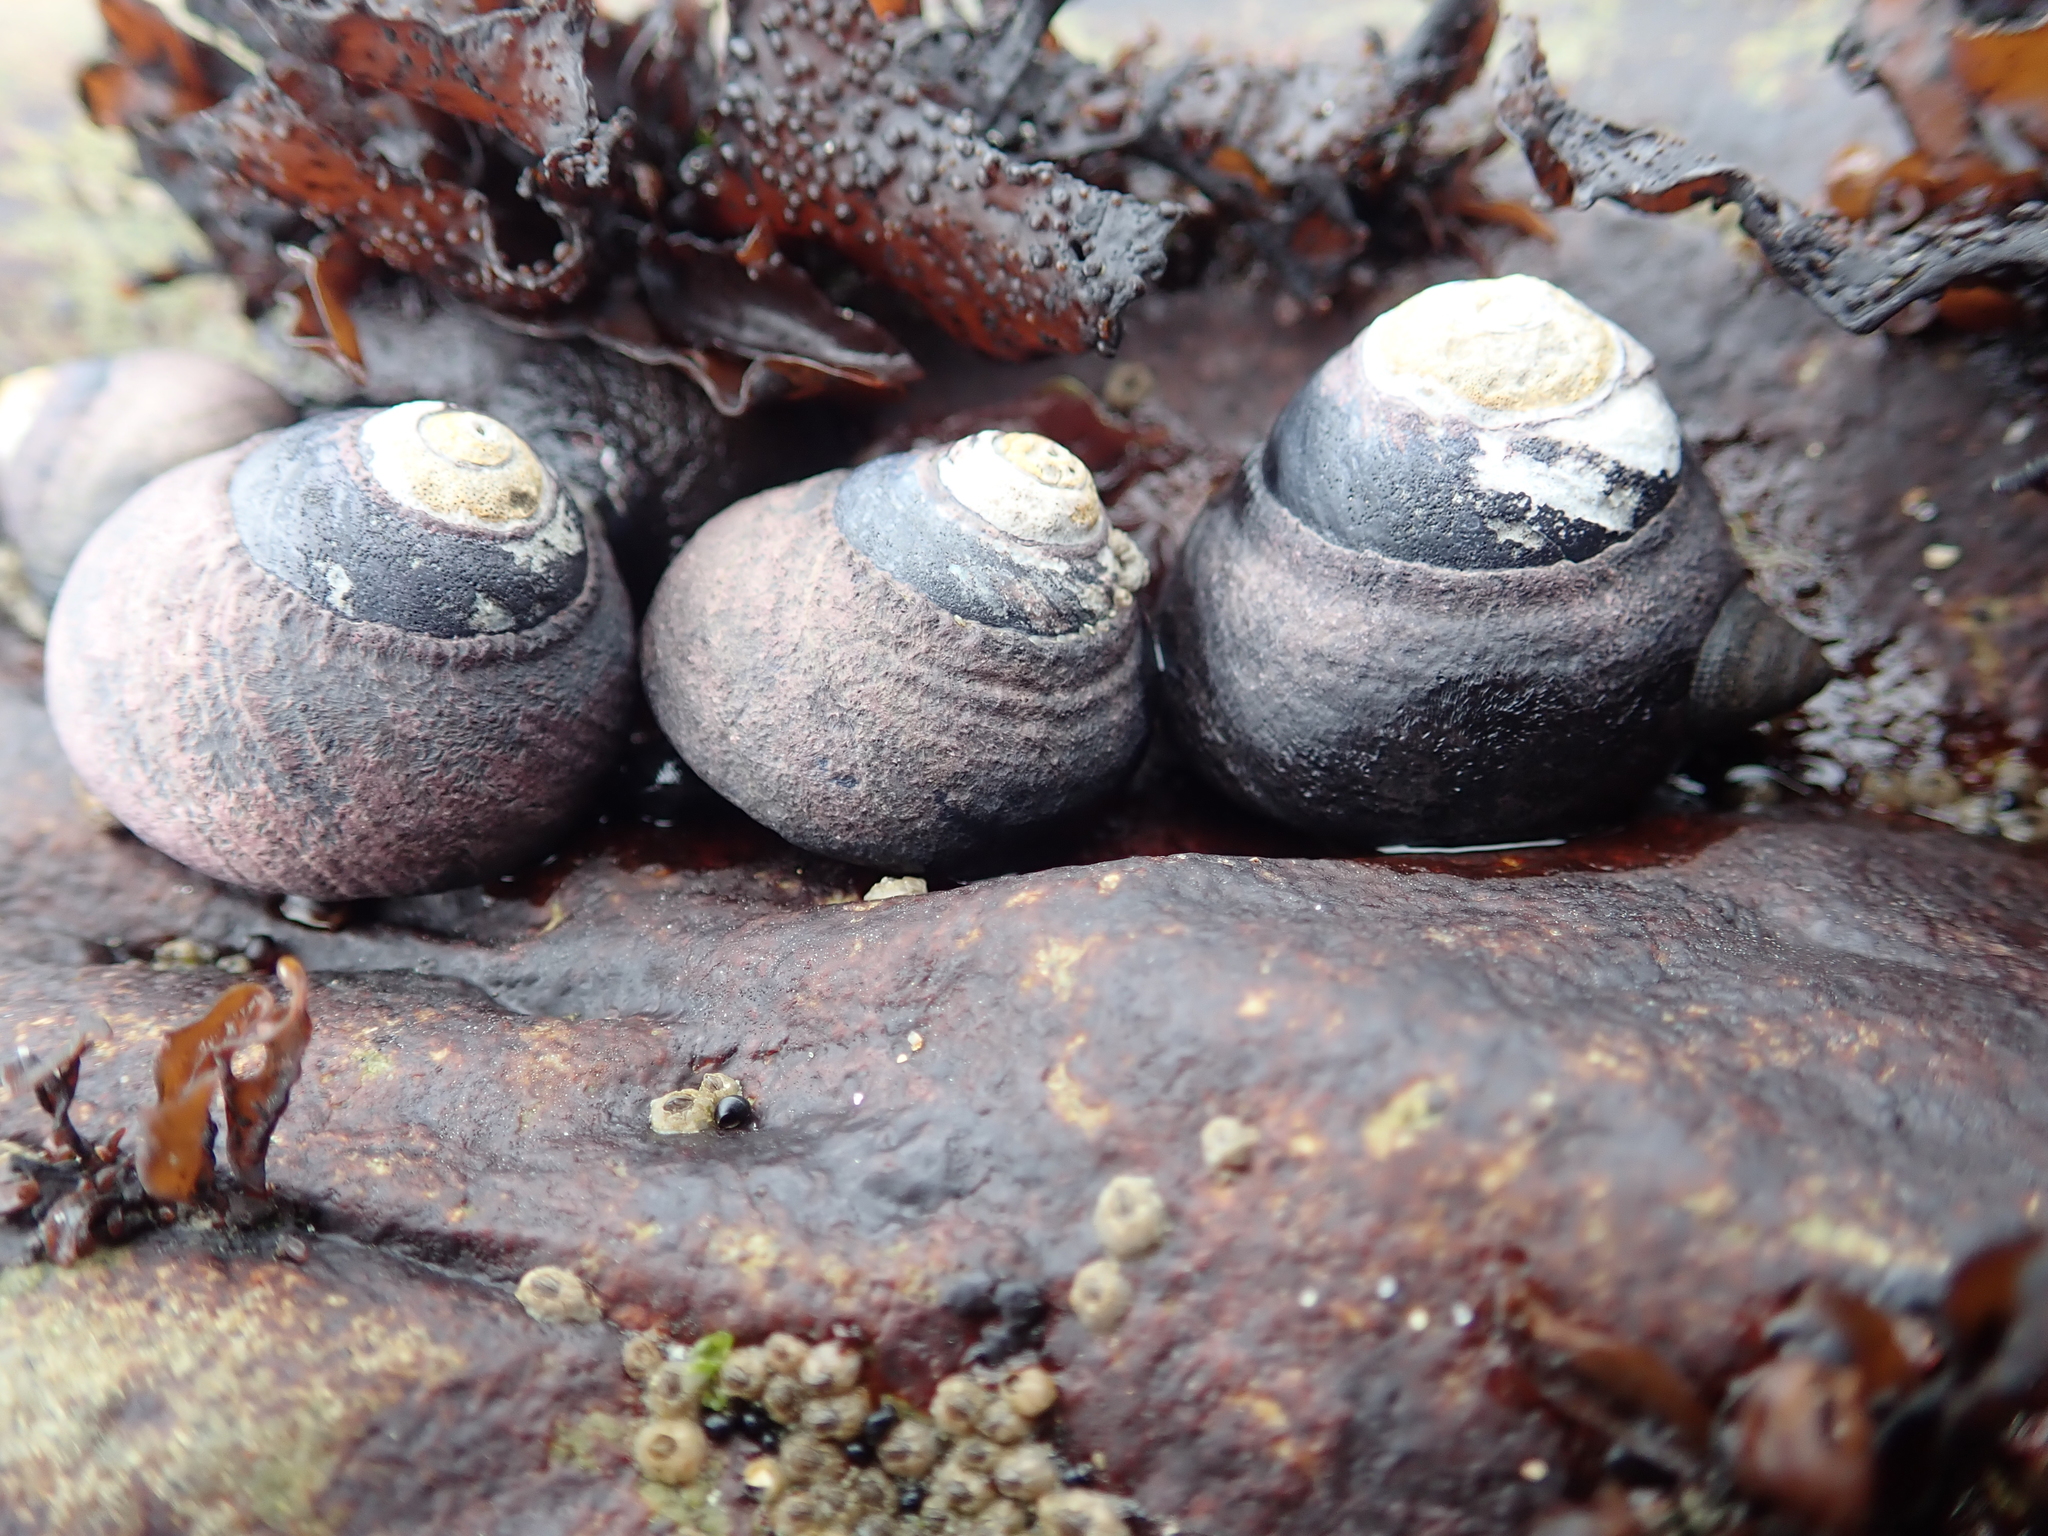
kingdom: Animalia
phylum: Mollusca
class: Gastropoda
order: Trochida
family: Tegulidae
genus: Tegula
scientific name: Tegula funebralis
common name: Black tegula
